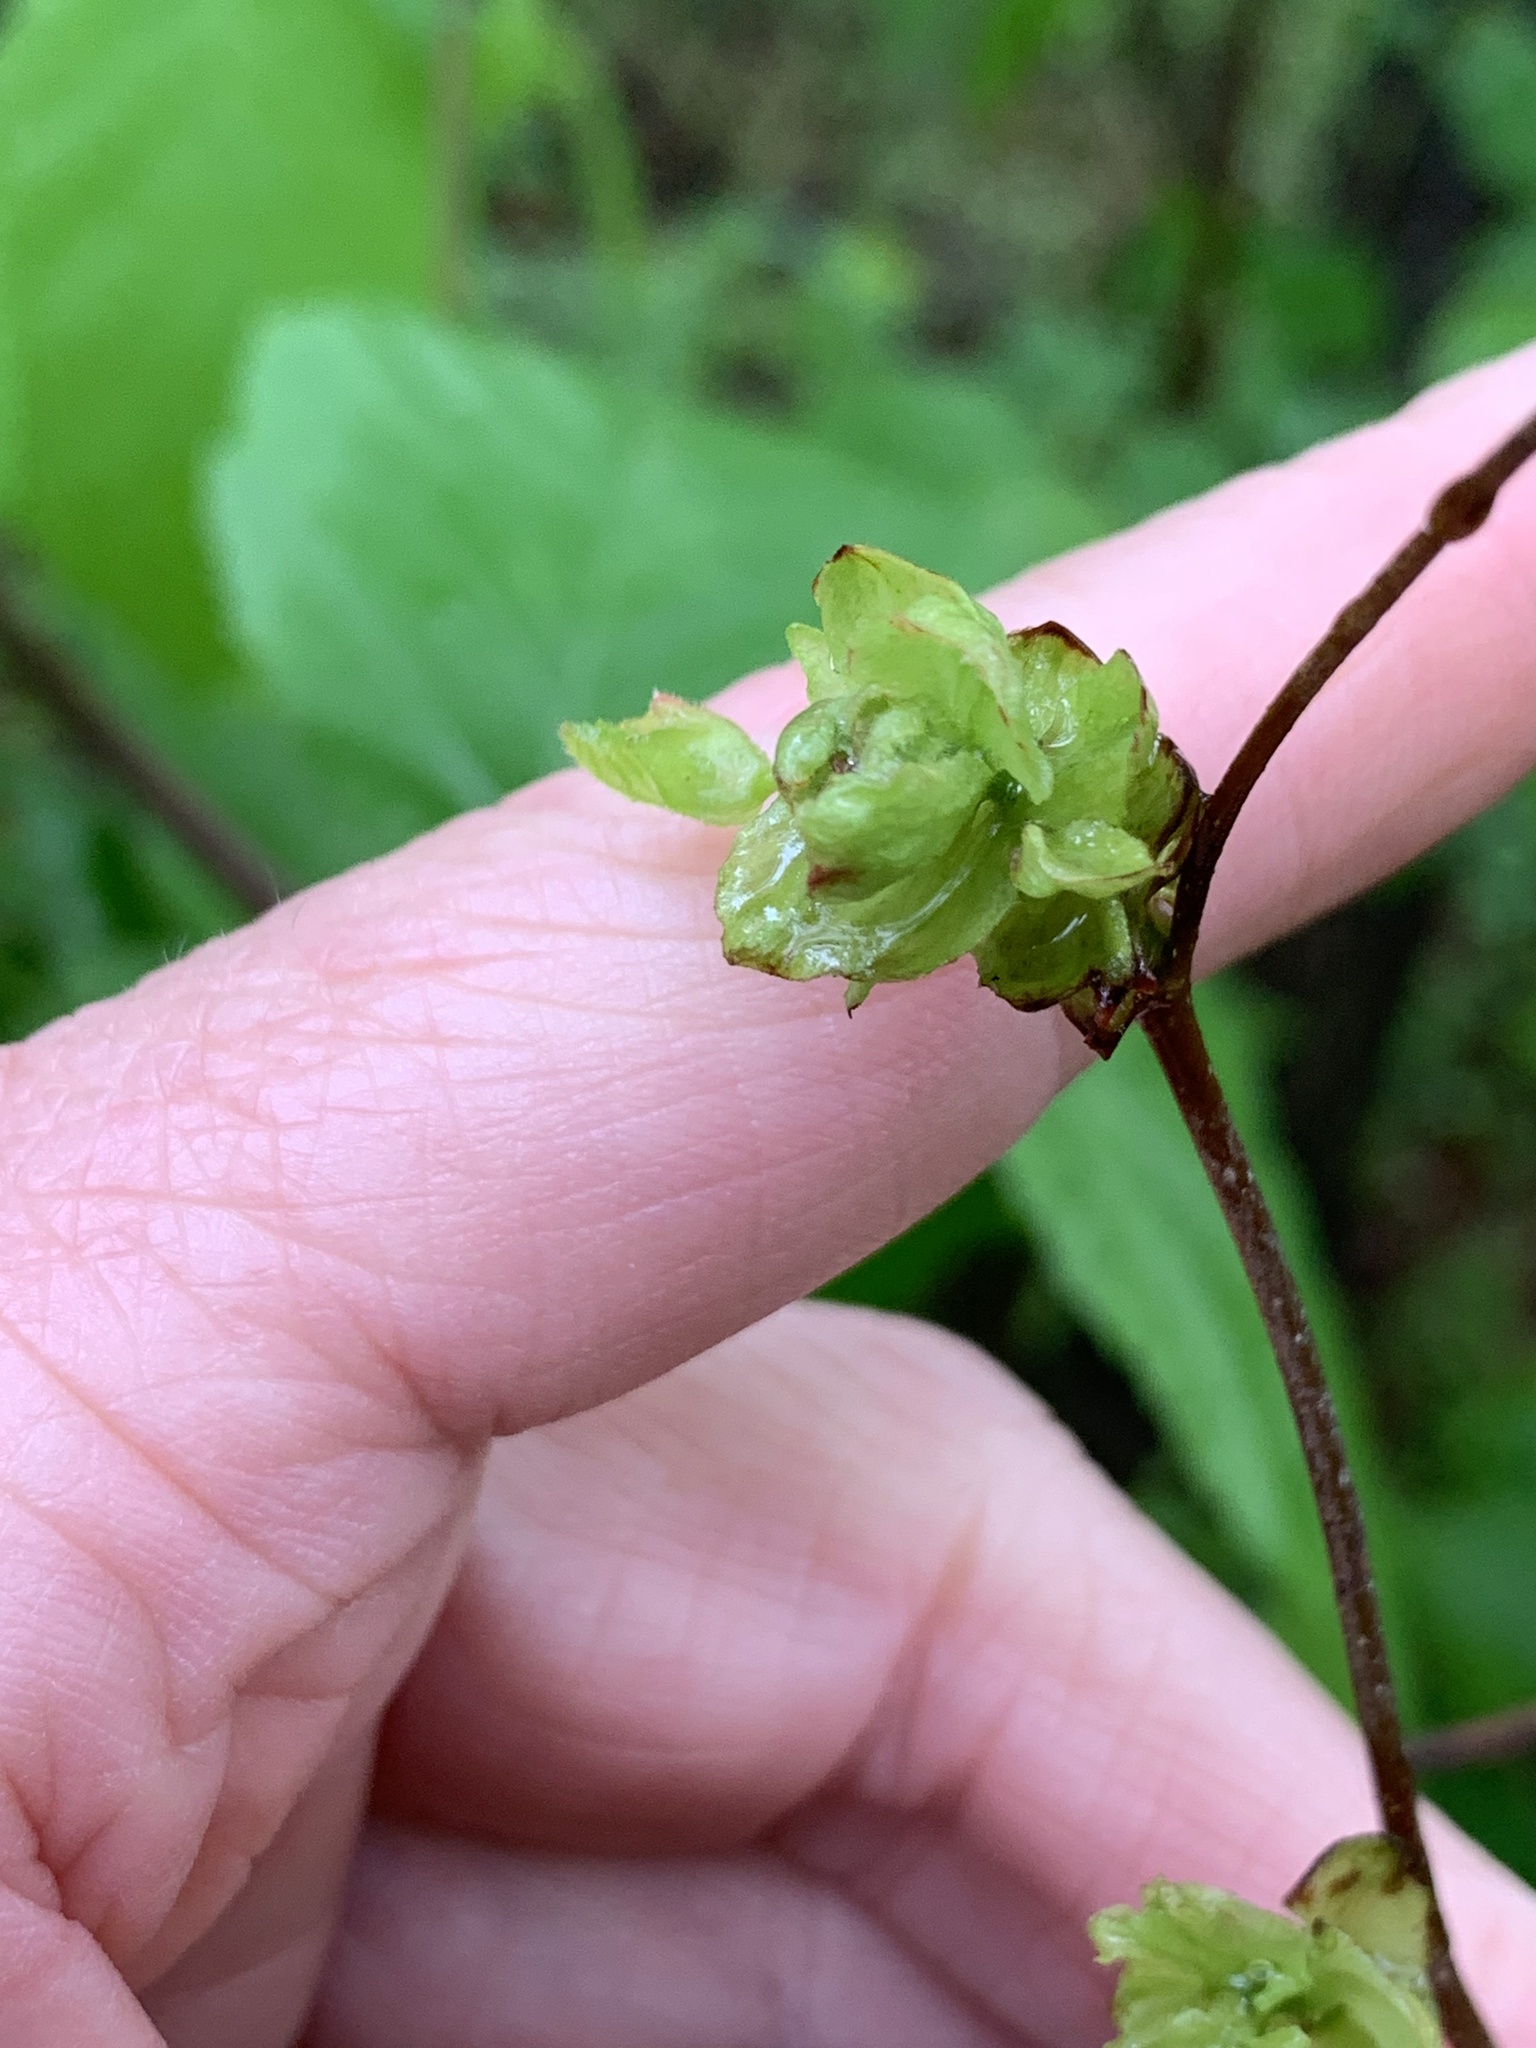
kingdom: Plantae
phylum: Tracheophyta
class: Magnoliopsida
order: Fagales
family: Betulaceae
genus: Corylus
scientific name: Corylus americana
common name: American hazel
